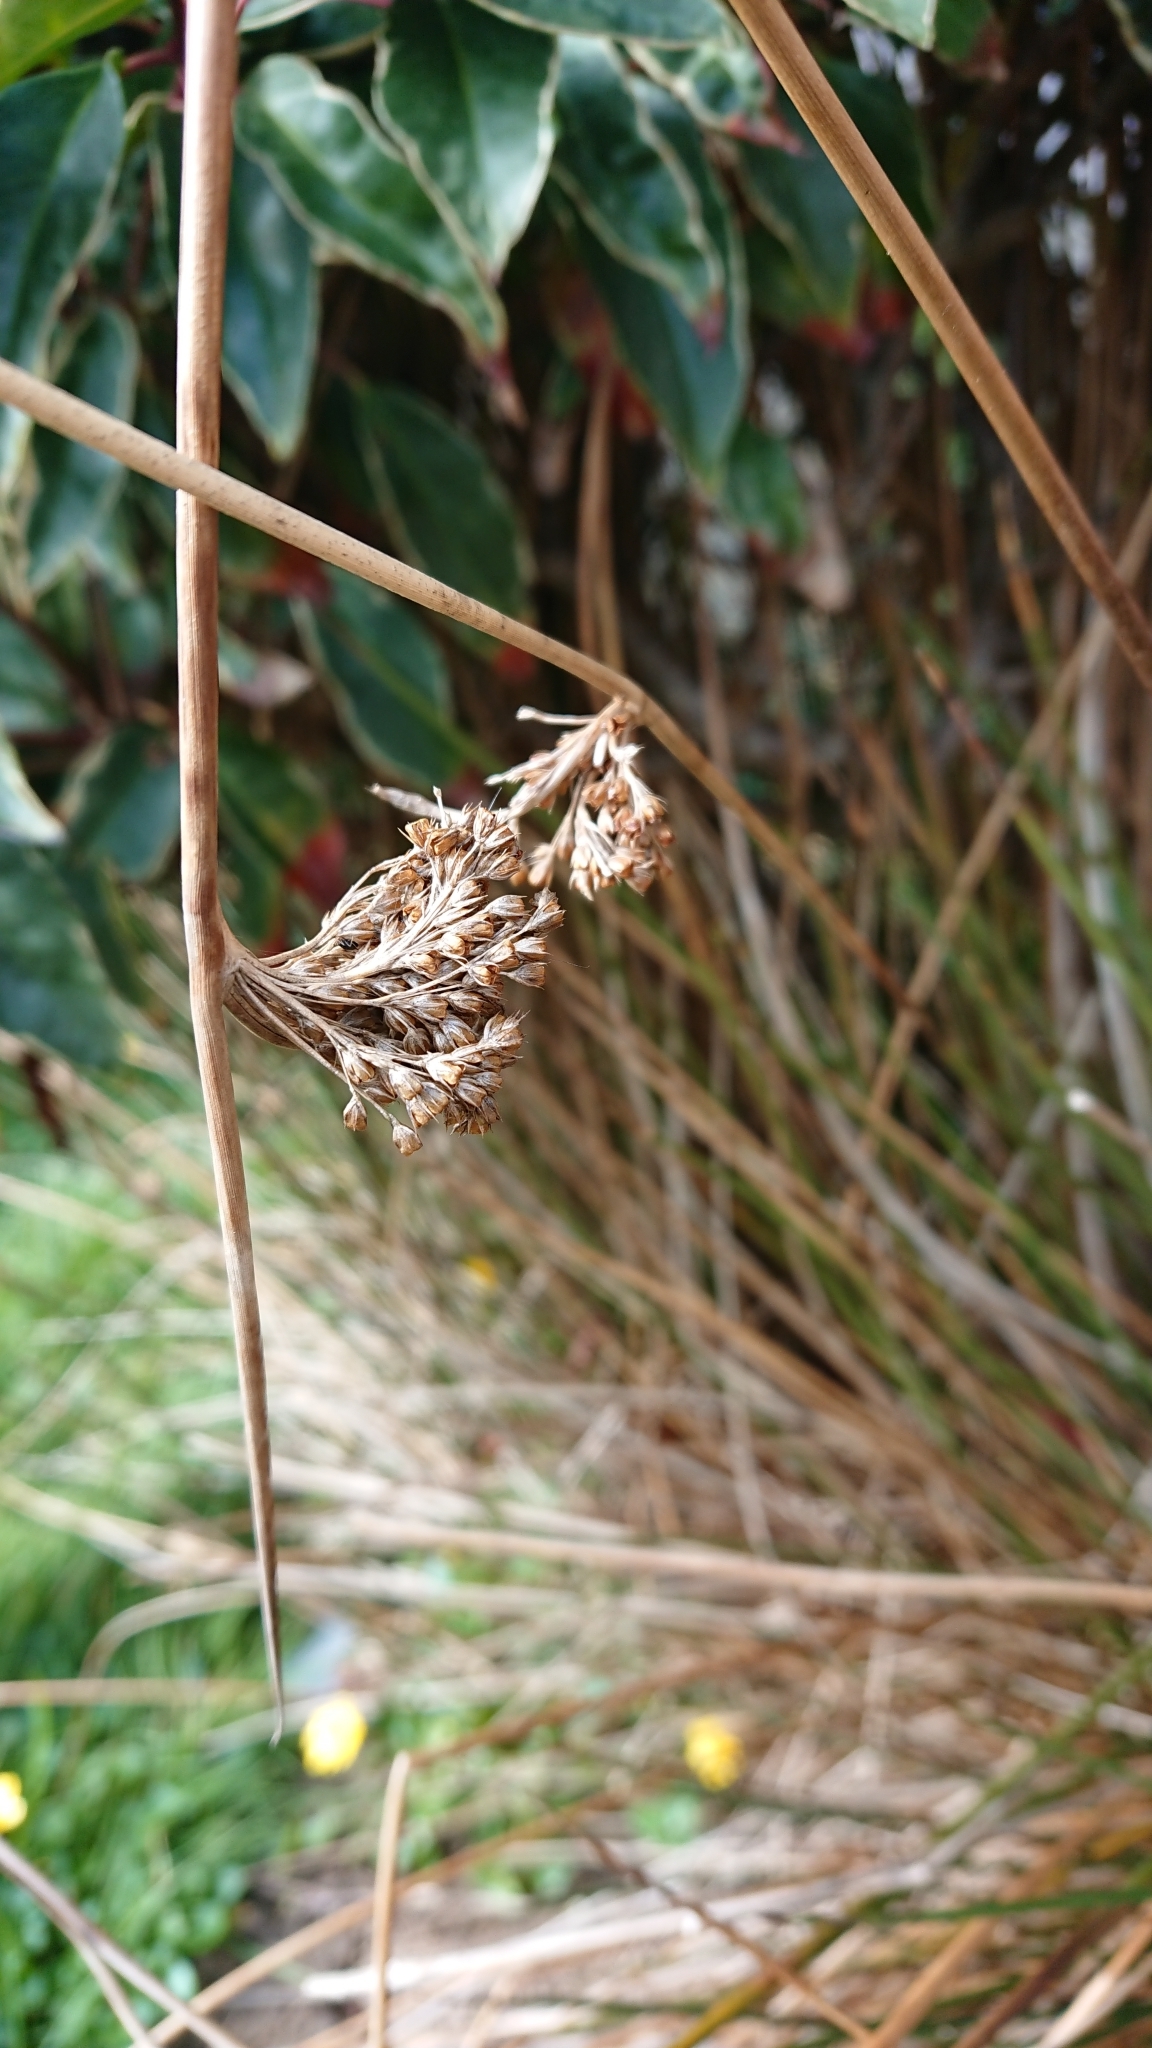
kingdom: Plantae
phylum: Tracheophyta
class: Liliopsida
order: Poales
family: Juncaceae
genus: Juncus
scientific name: Juncus effusus
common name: Soft rush
